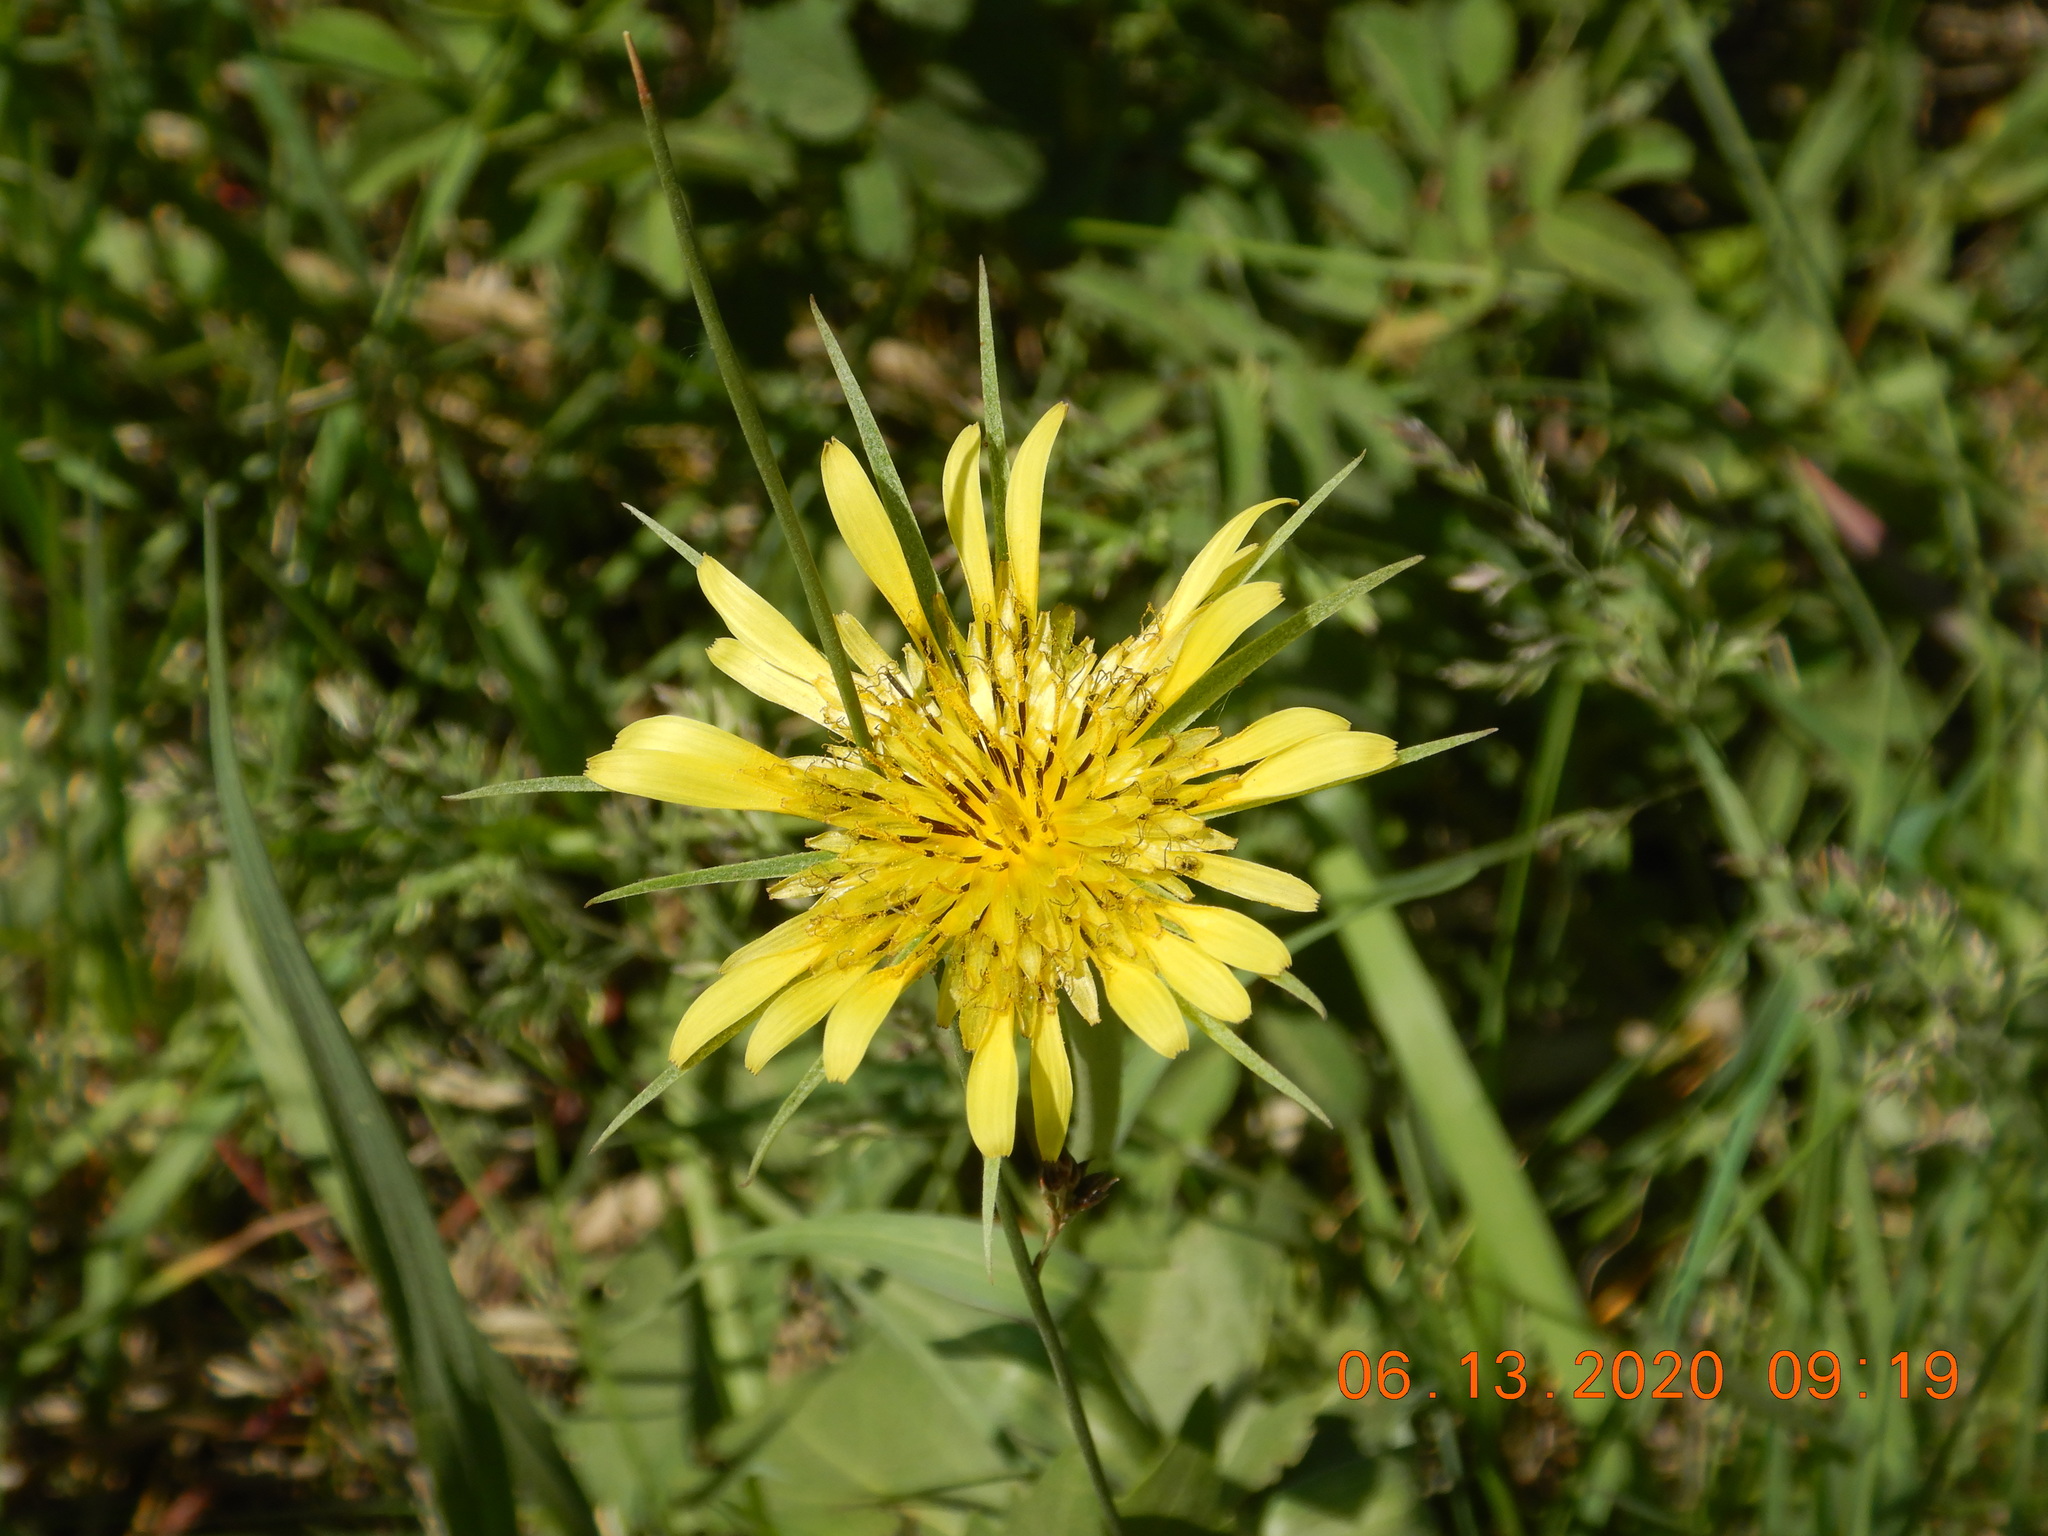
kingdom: Plantae
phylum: Tracheophyta
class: Magnoliopsida
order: Asterales
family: Asteraceae
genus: Tragopogon
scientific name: Tragopogon dubius
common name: Yellow salsify
